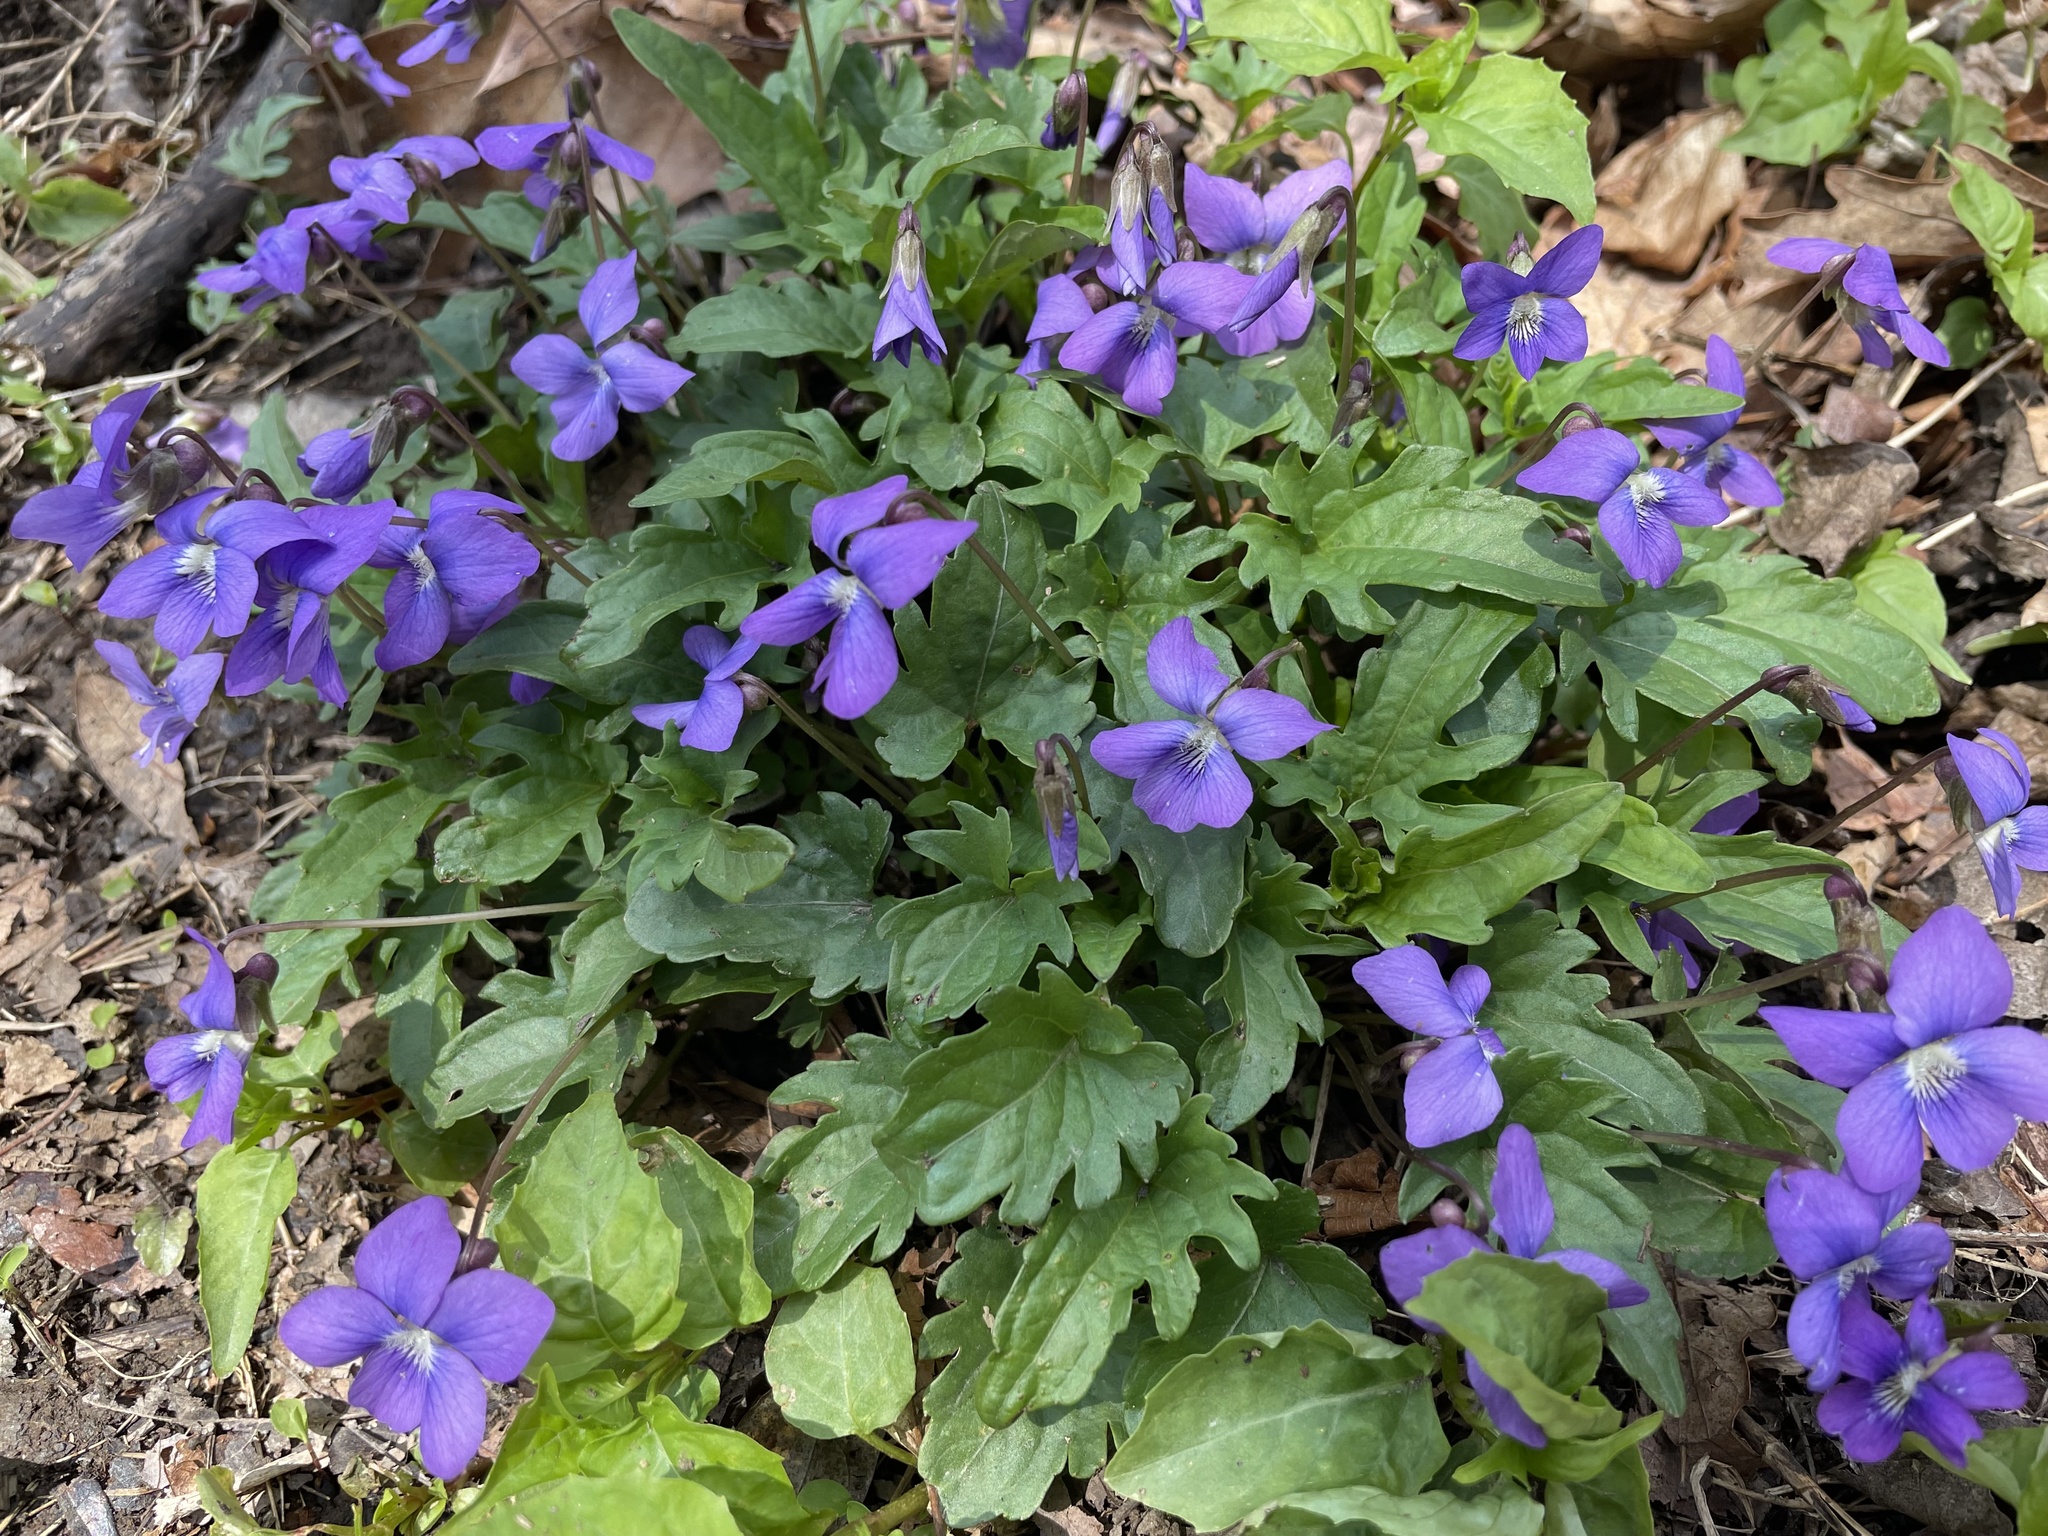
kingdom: Plantae
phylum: Tracheophyta
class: Magnoliopsida
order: Malpighiales
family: Violaceae
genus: Viola
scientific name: Viola palmata
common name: Early blue violet
